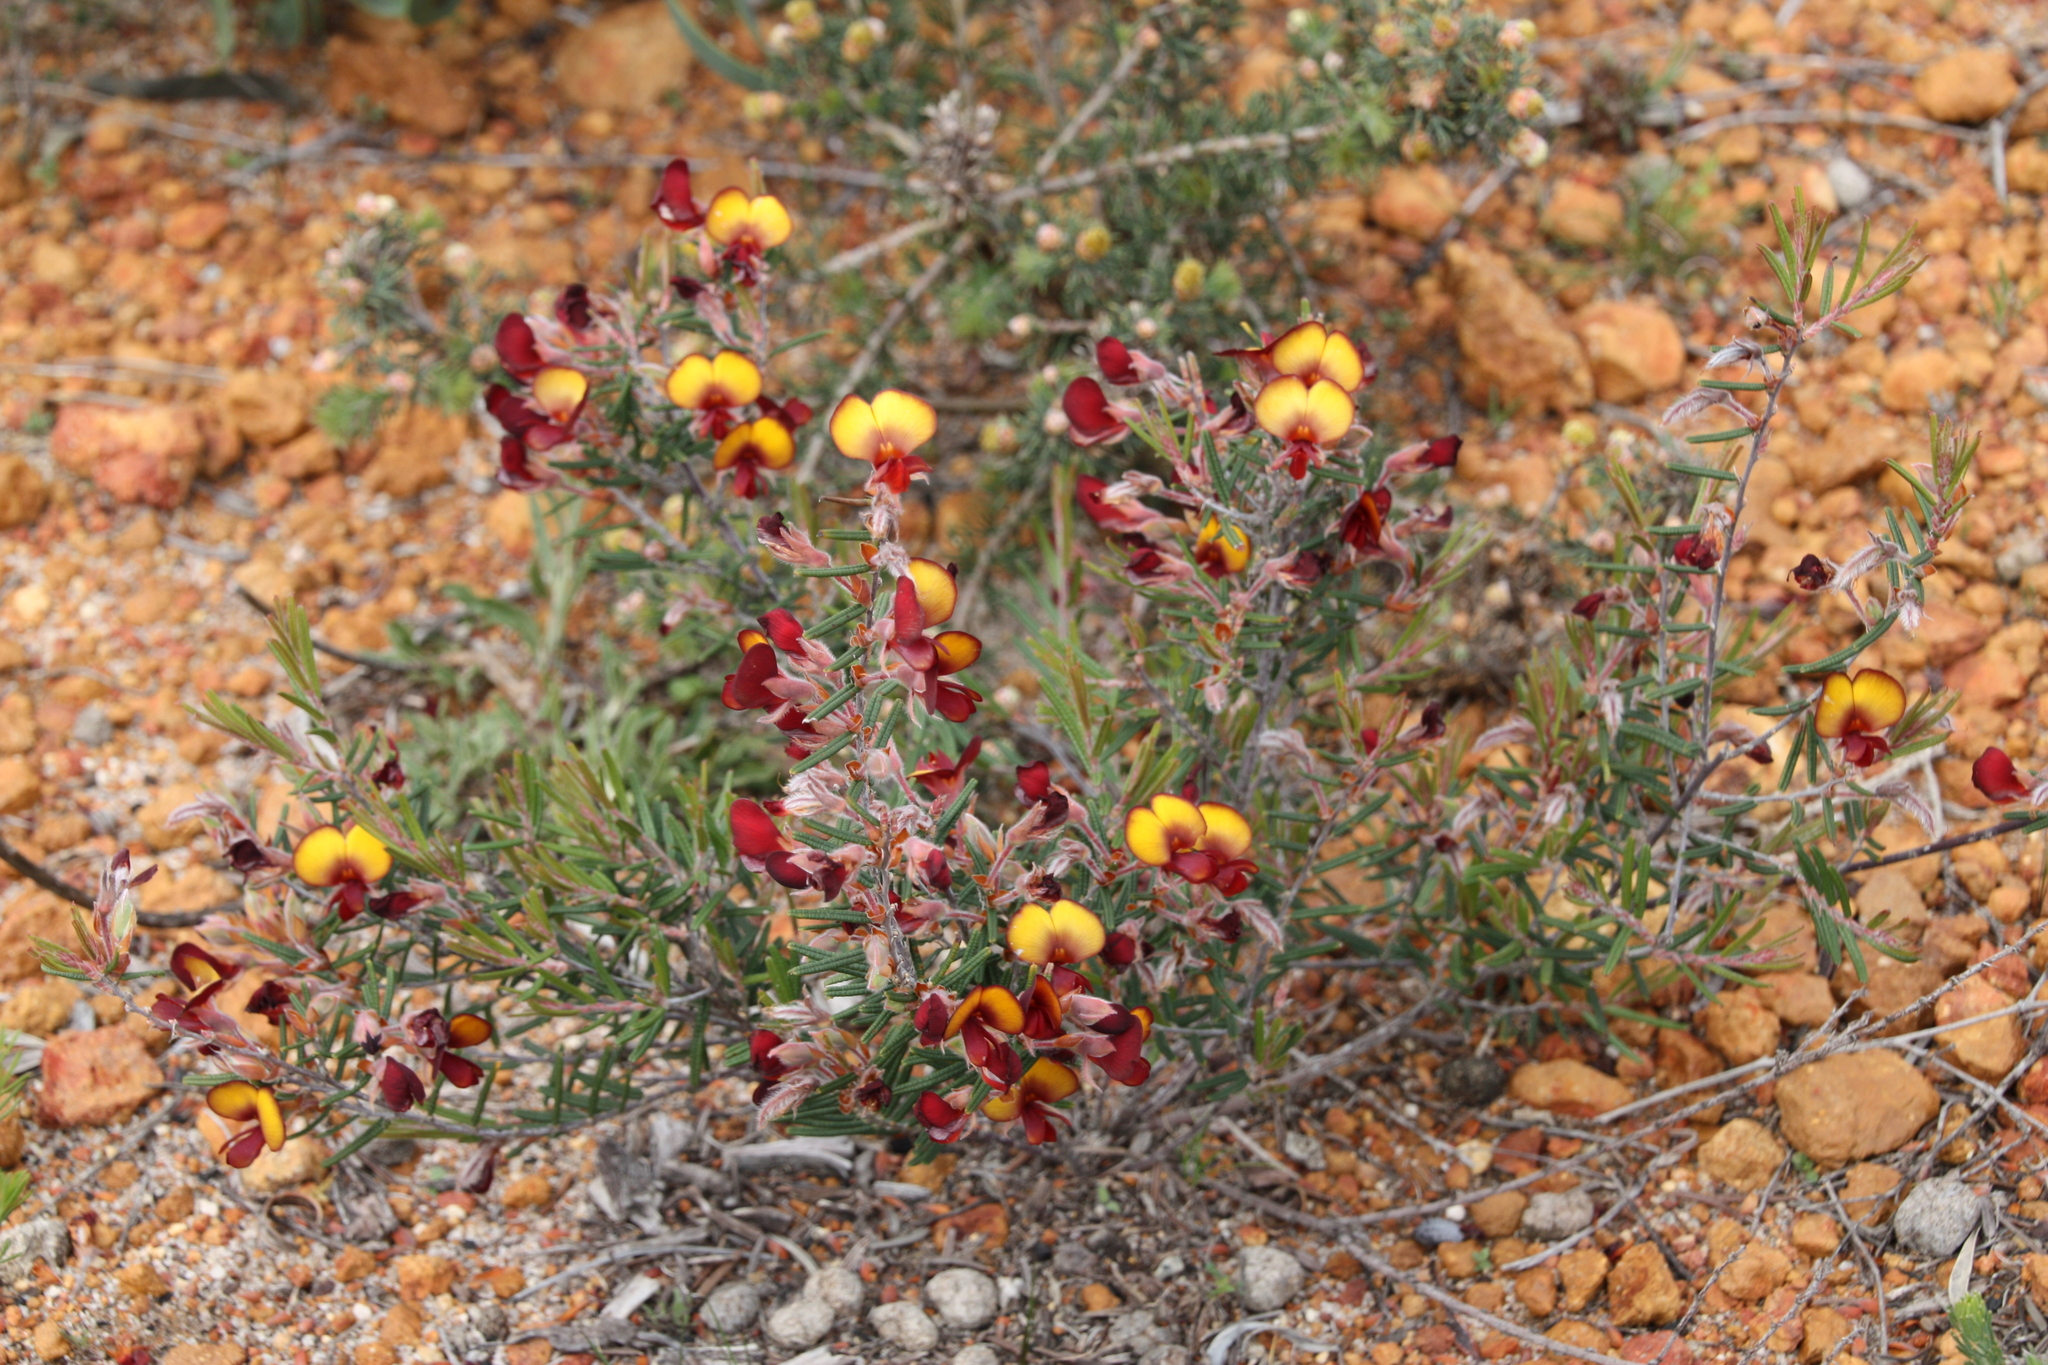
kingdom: Plantae
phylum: Tracheophyta
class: Magnoliopsida
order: Fabales
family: Fabaceae
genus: Bossiaea
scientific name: Bossiaea eriocarpa
